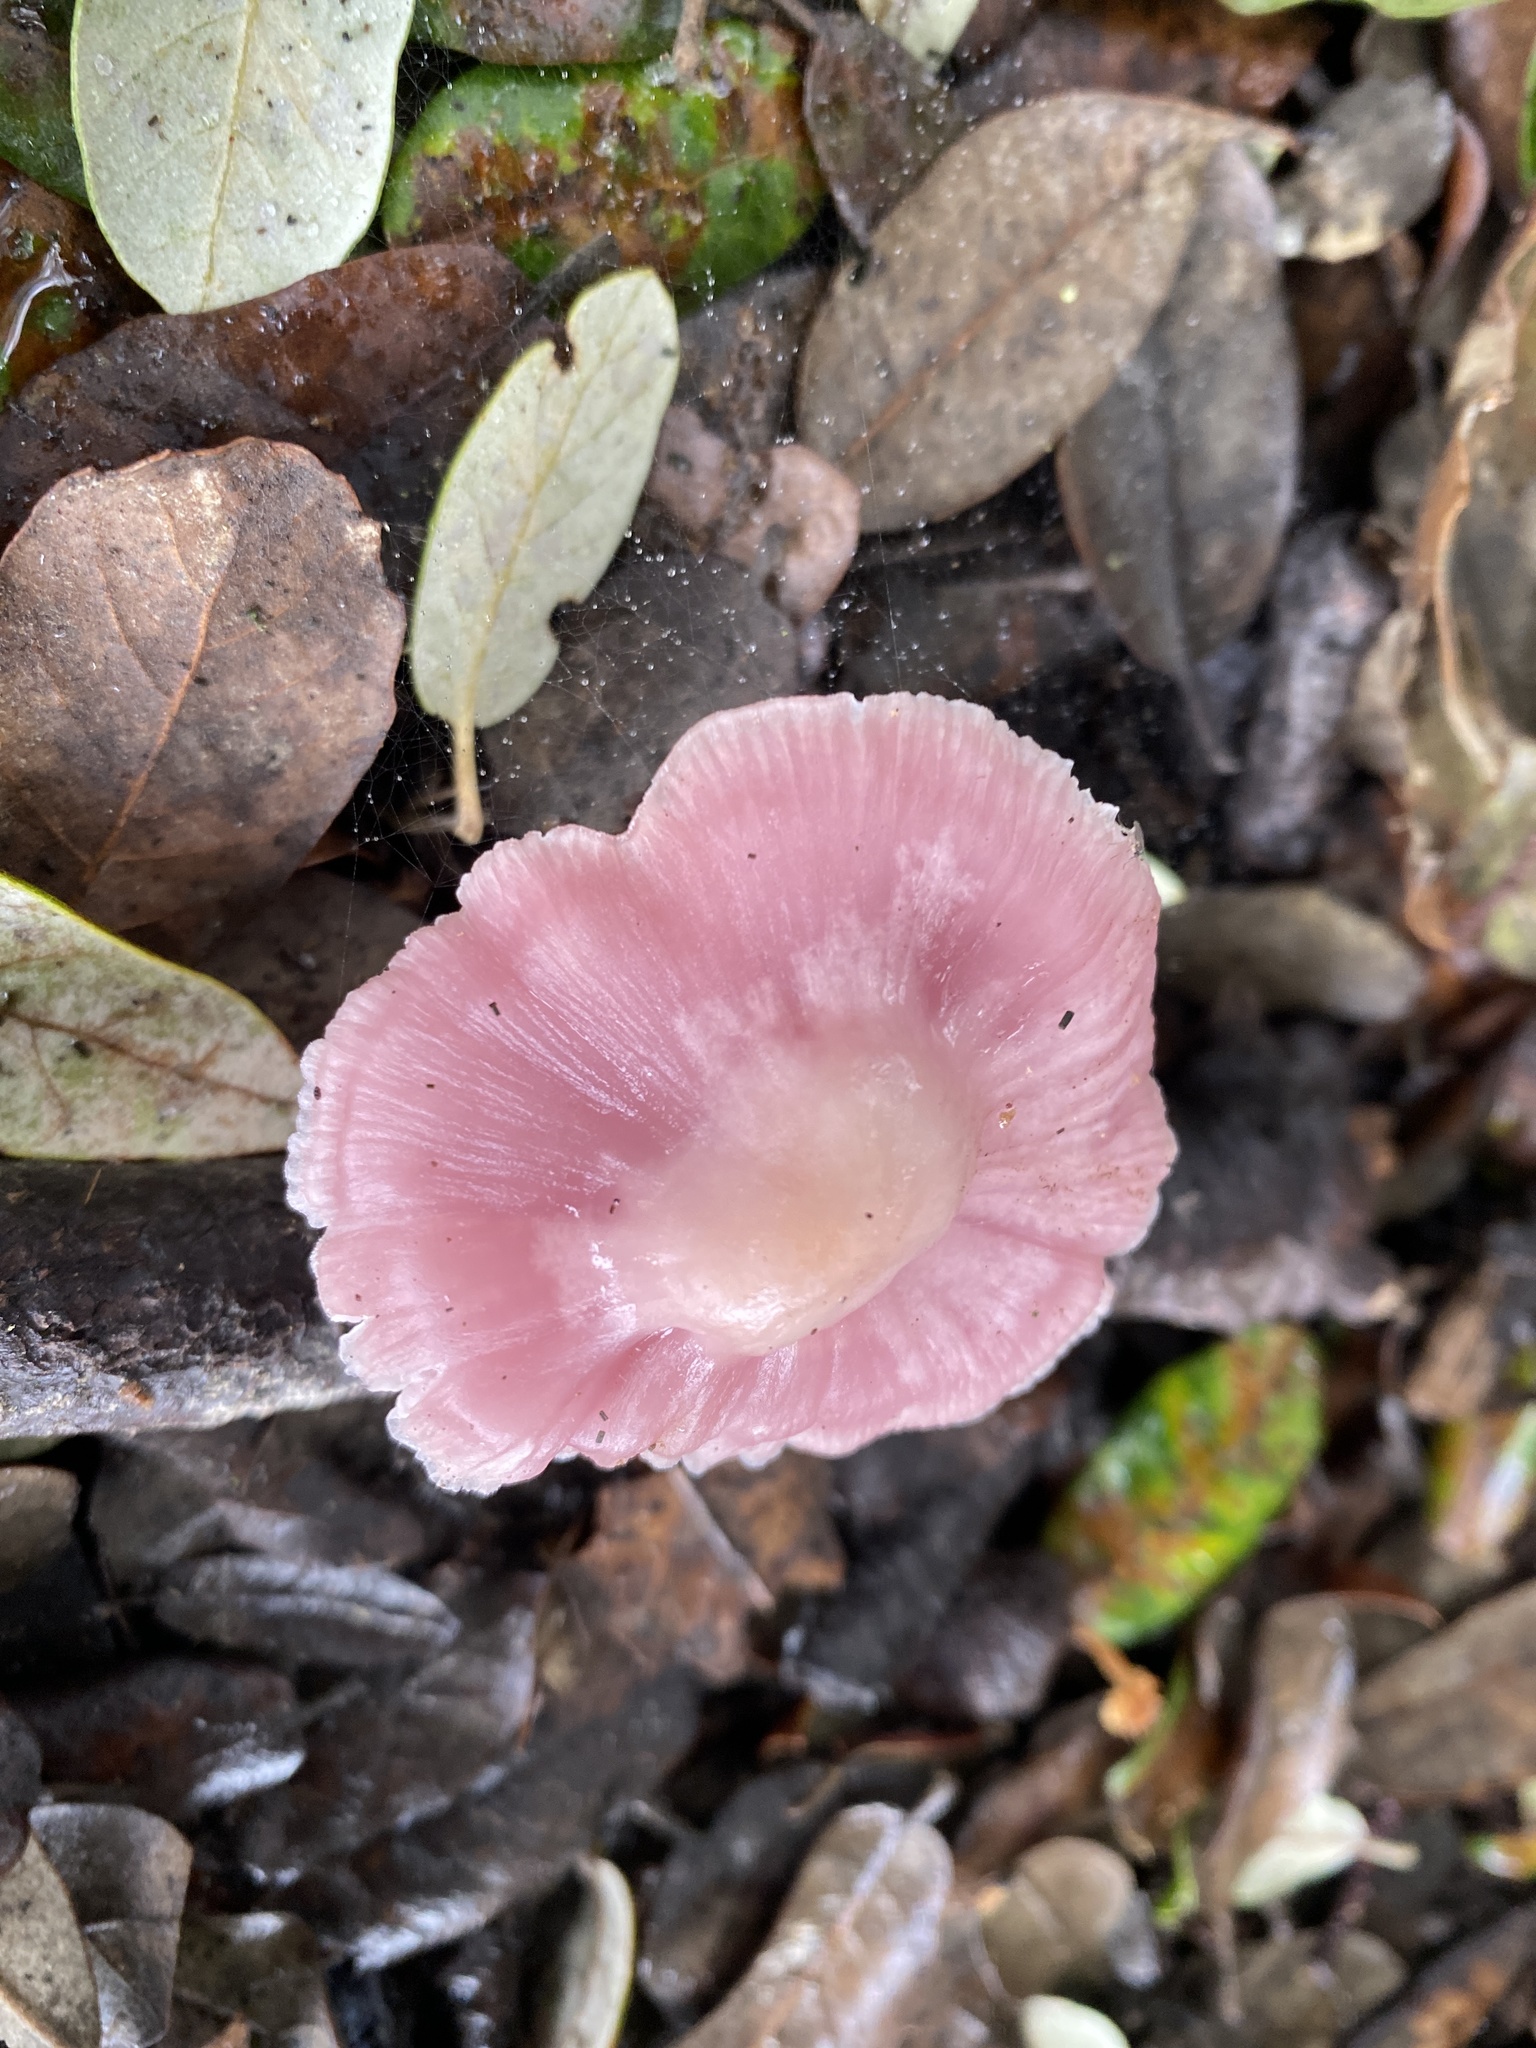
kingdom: Fungi
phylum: Basidiomycota
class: Agaricomycetes
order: Agaricales
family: Mycenaceae
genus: Mycena
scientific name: Mycena rosea
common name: Rosy bonnet
